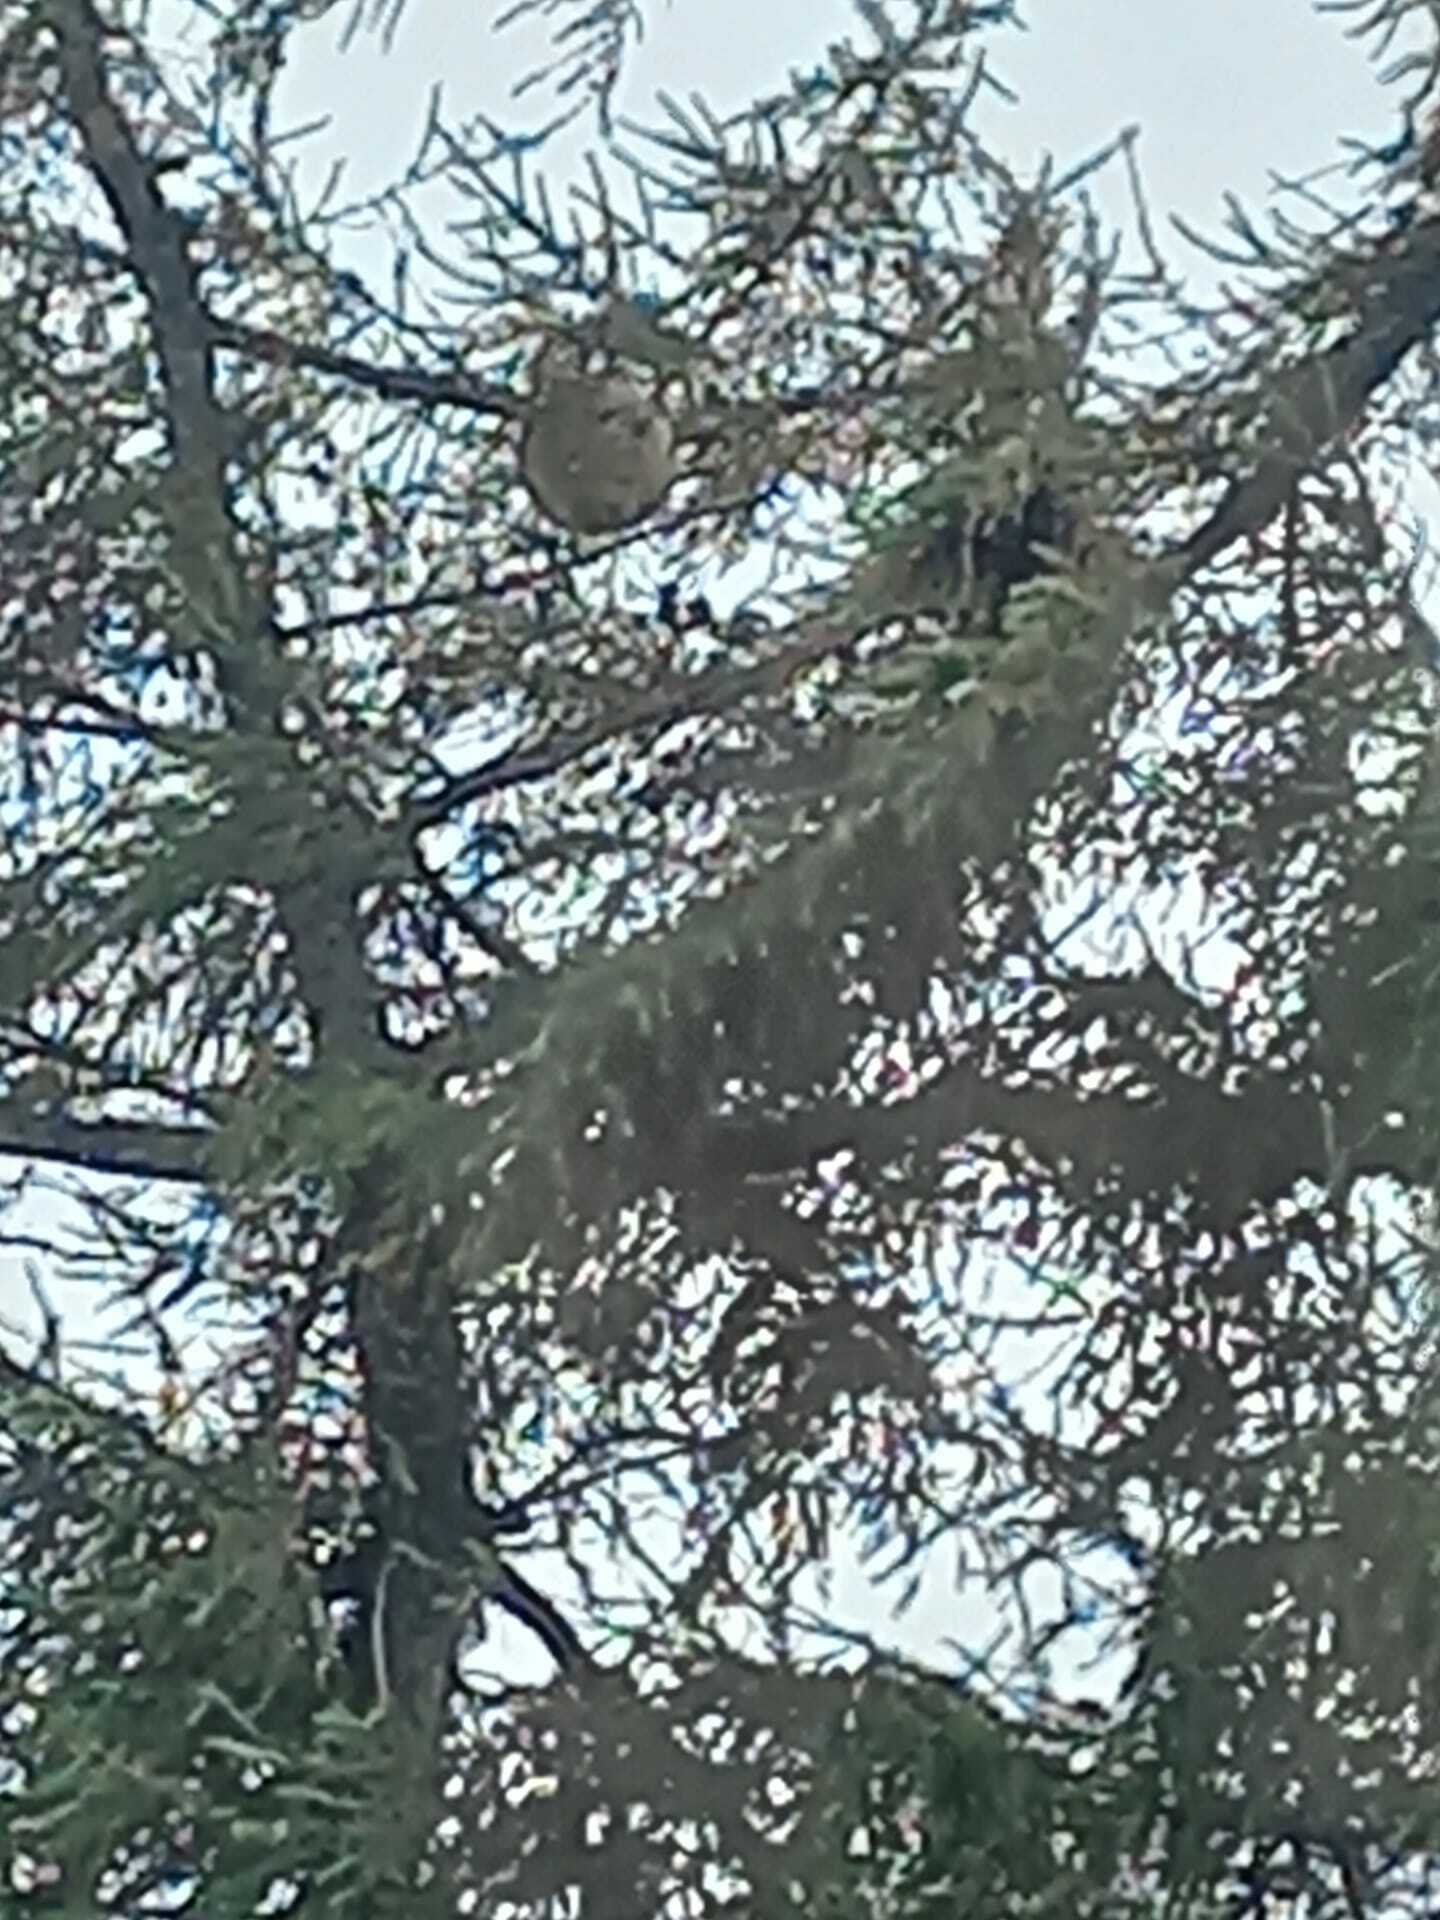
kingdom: Animalia
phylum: Arthropoda
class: Insecta
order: Hymenoptera
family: Vespidae
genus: Vespa
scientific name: Vespa velutina
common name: Asian hornet
